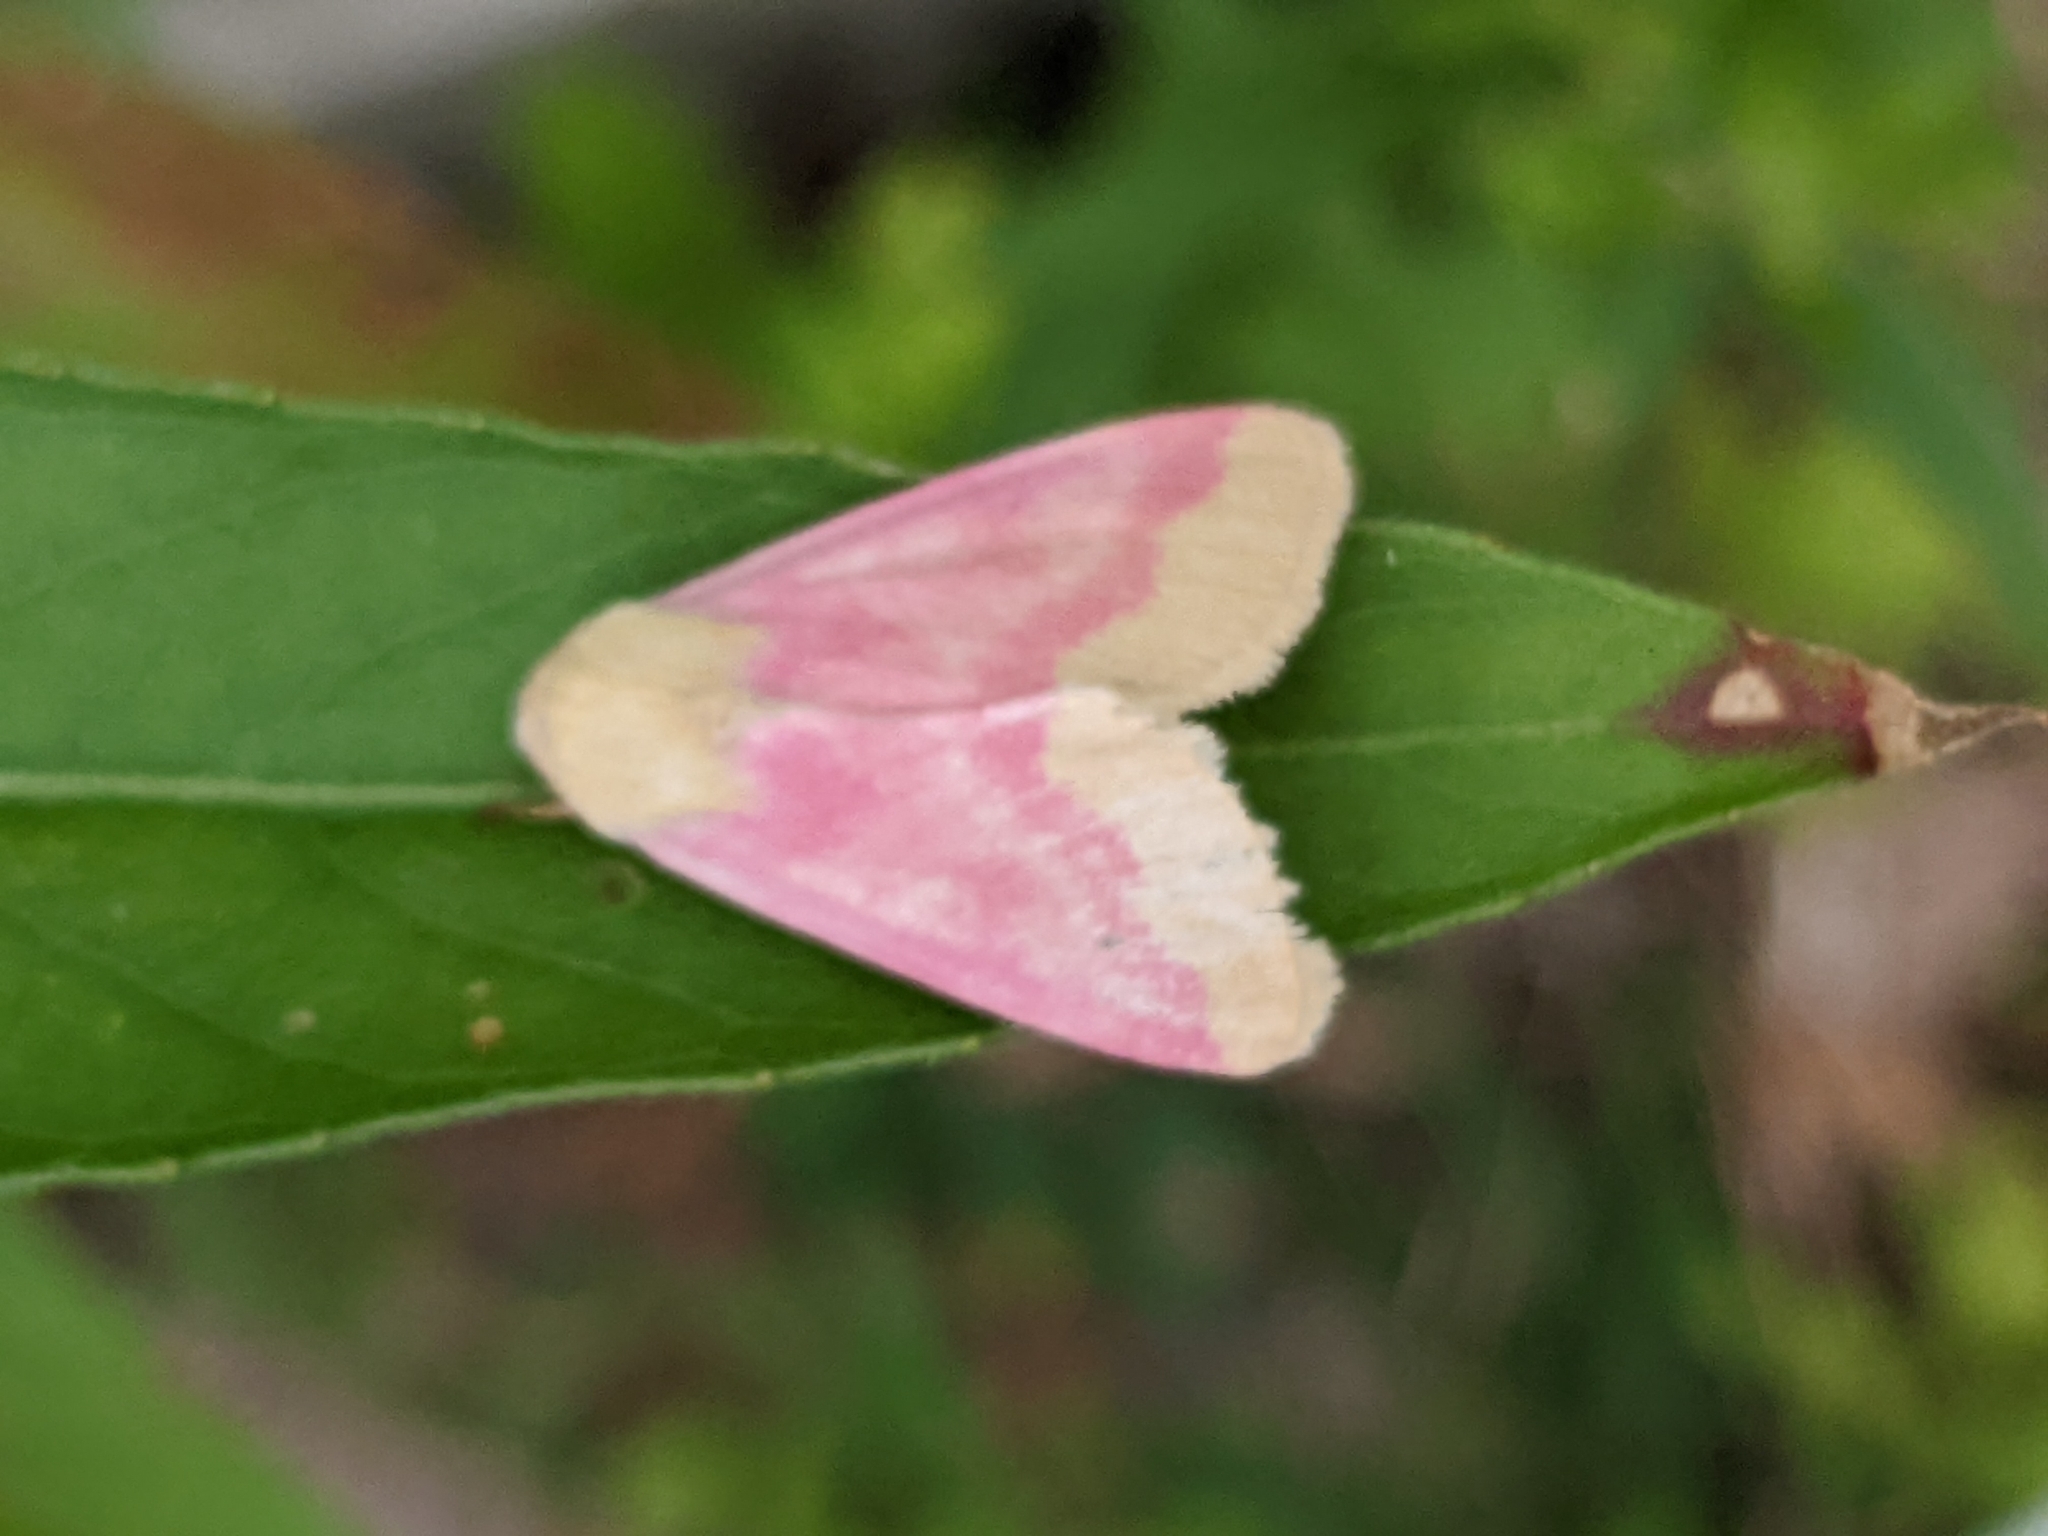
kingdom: Animalia
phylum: Arthropoda
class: Insecta
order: Lepidoptera
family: Noctuidae
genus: Schinia
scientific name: Schinia florida
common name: Primrose moth
